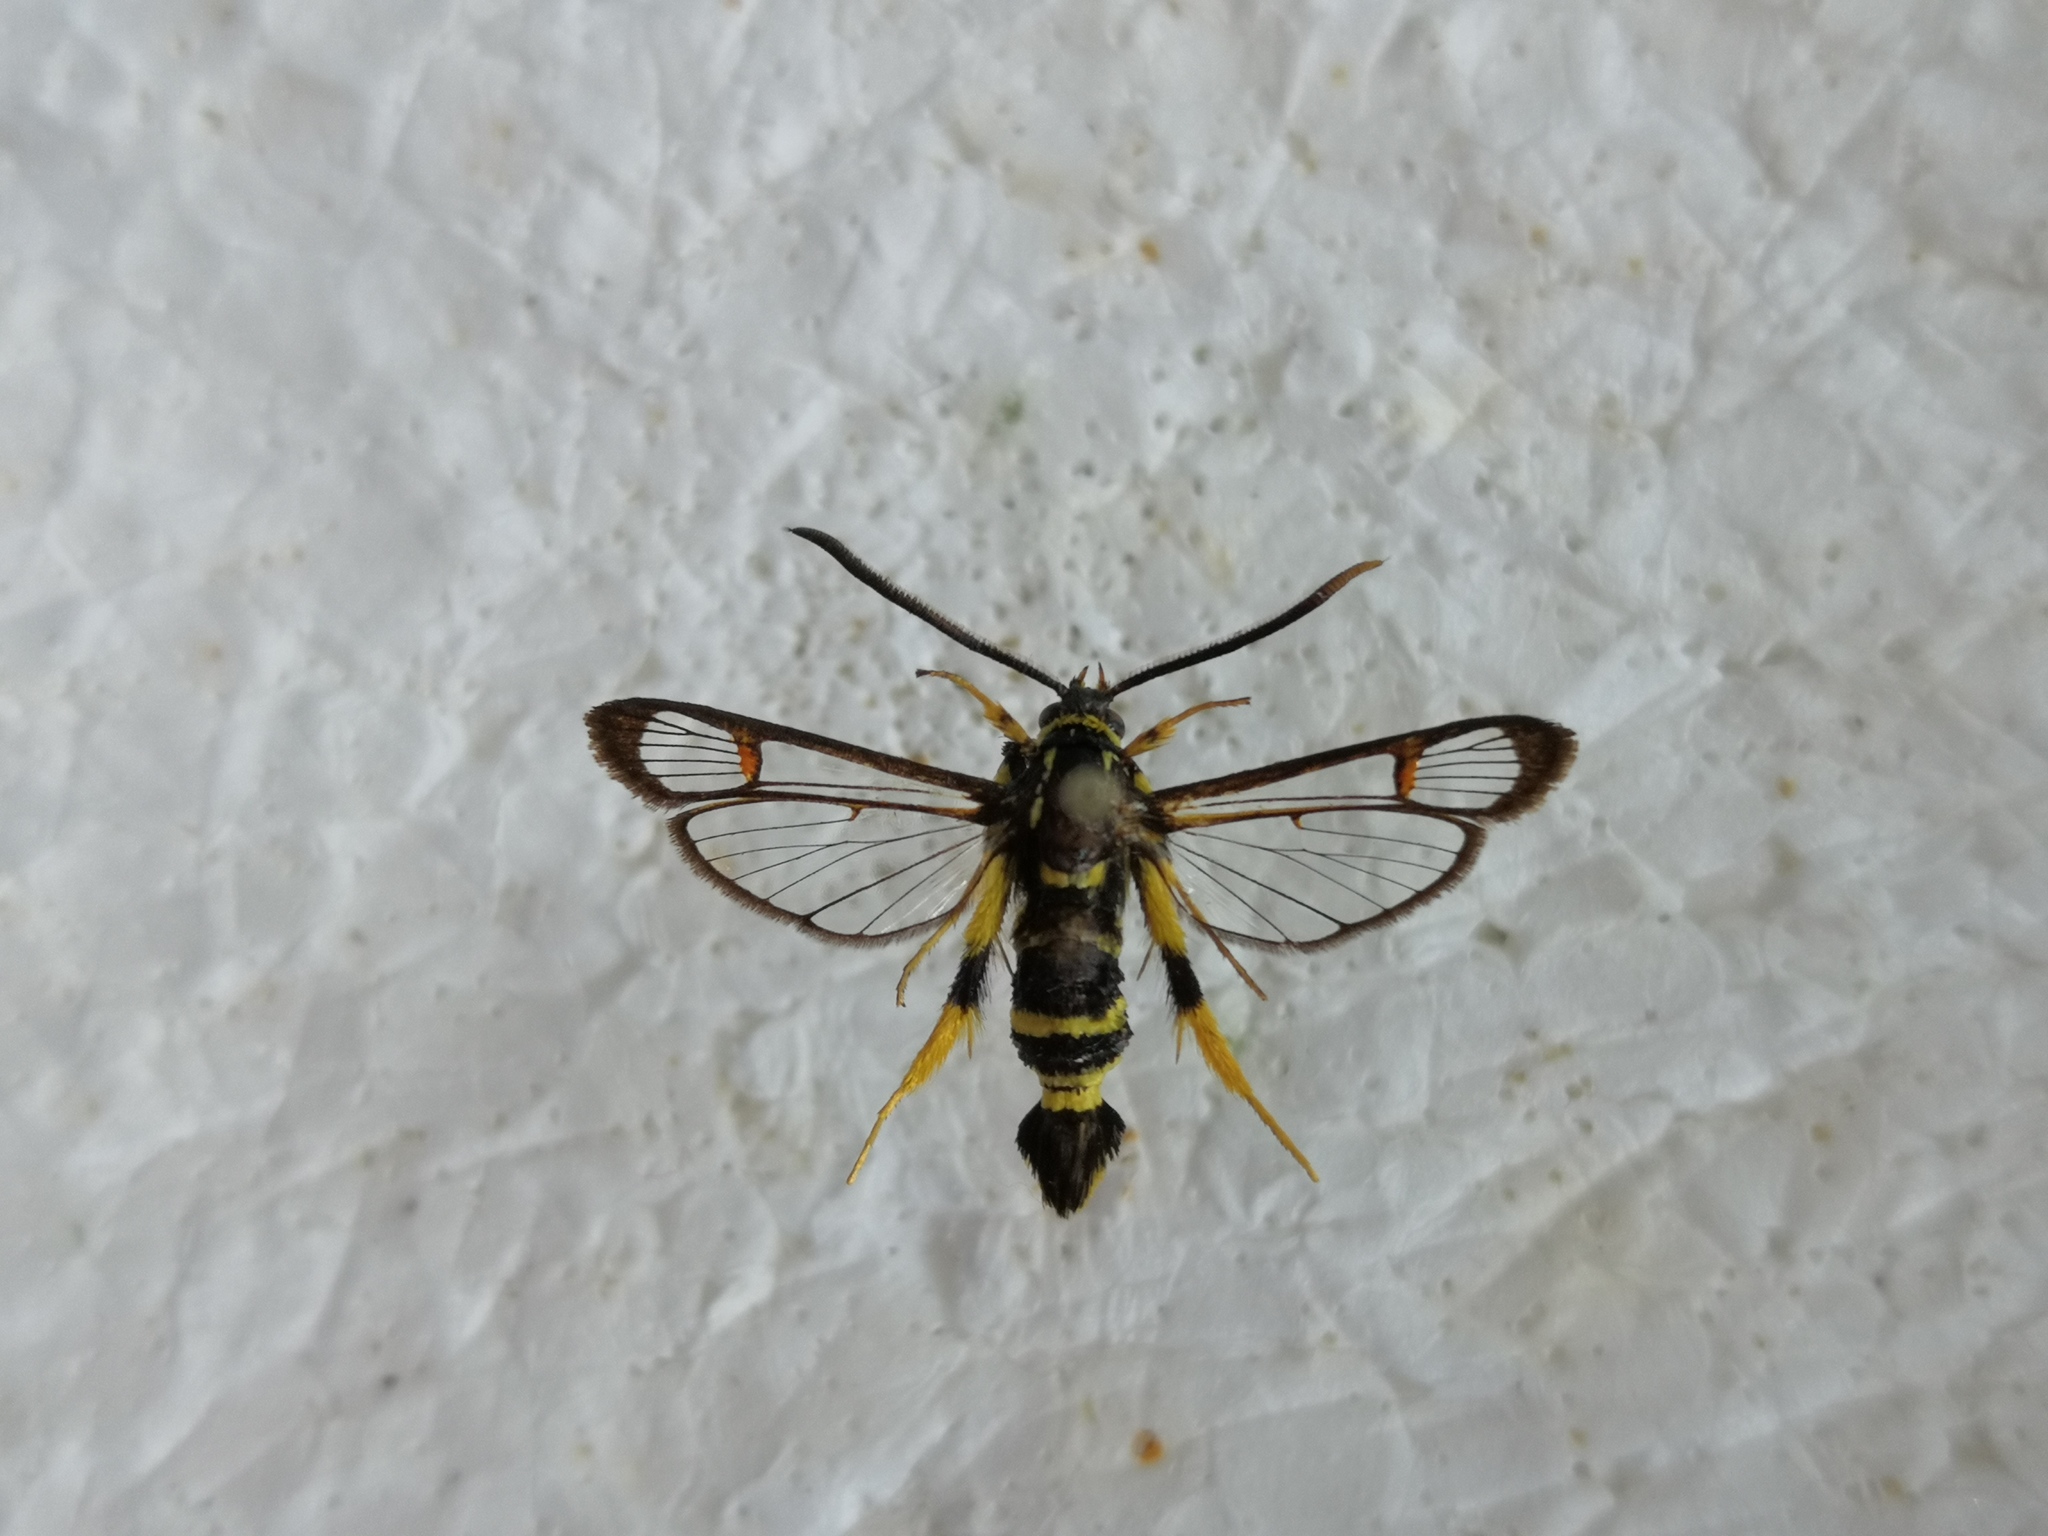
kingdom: Animalia
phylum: Arthropoda
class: Insecta
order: Lepidoptera
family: Sesiidae
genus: Synanthedon
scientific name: Synanthedon vespiformis
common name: Yellow-legged clearwing
